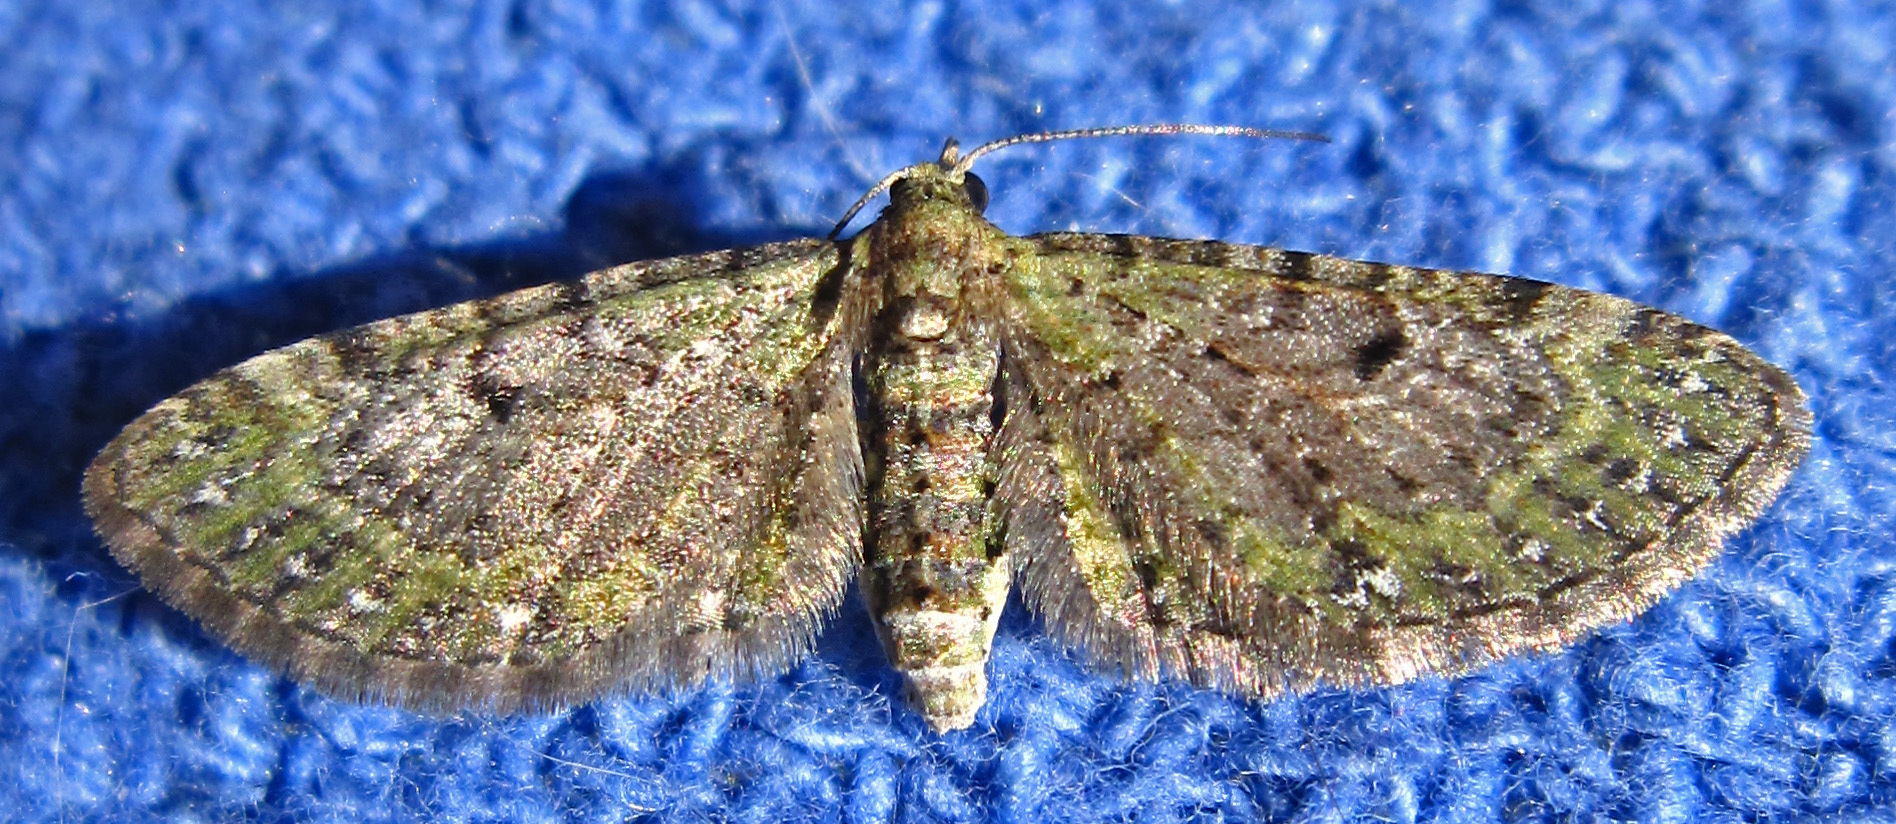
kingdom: Animalia
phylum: Arthropoda
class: Insecta
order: Lepidoptera
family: Geometridae
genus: Eupithecia
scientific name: Eupithecia miserulata
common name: Common eupithecia
